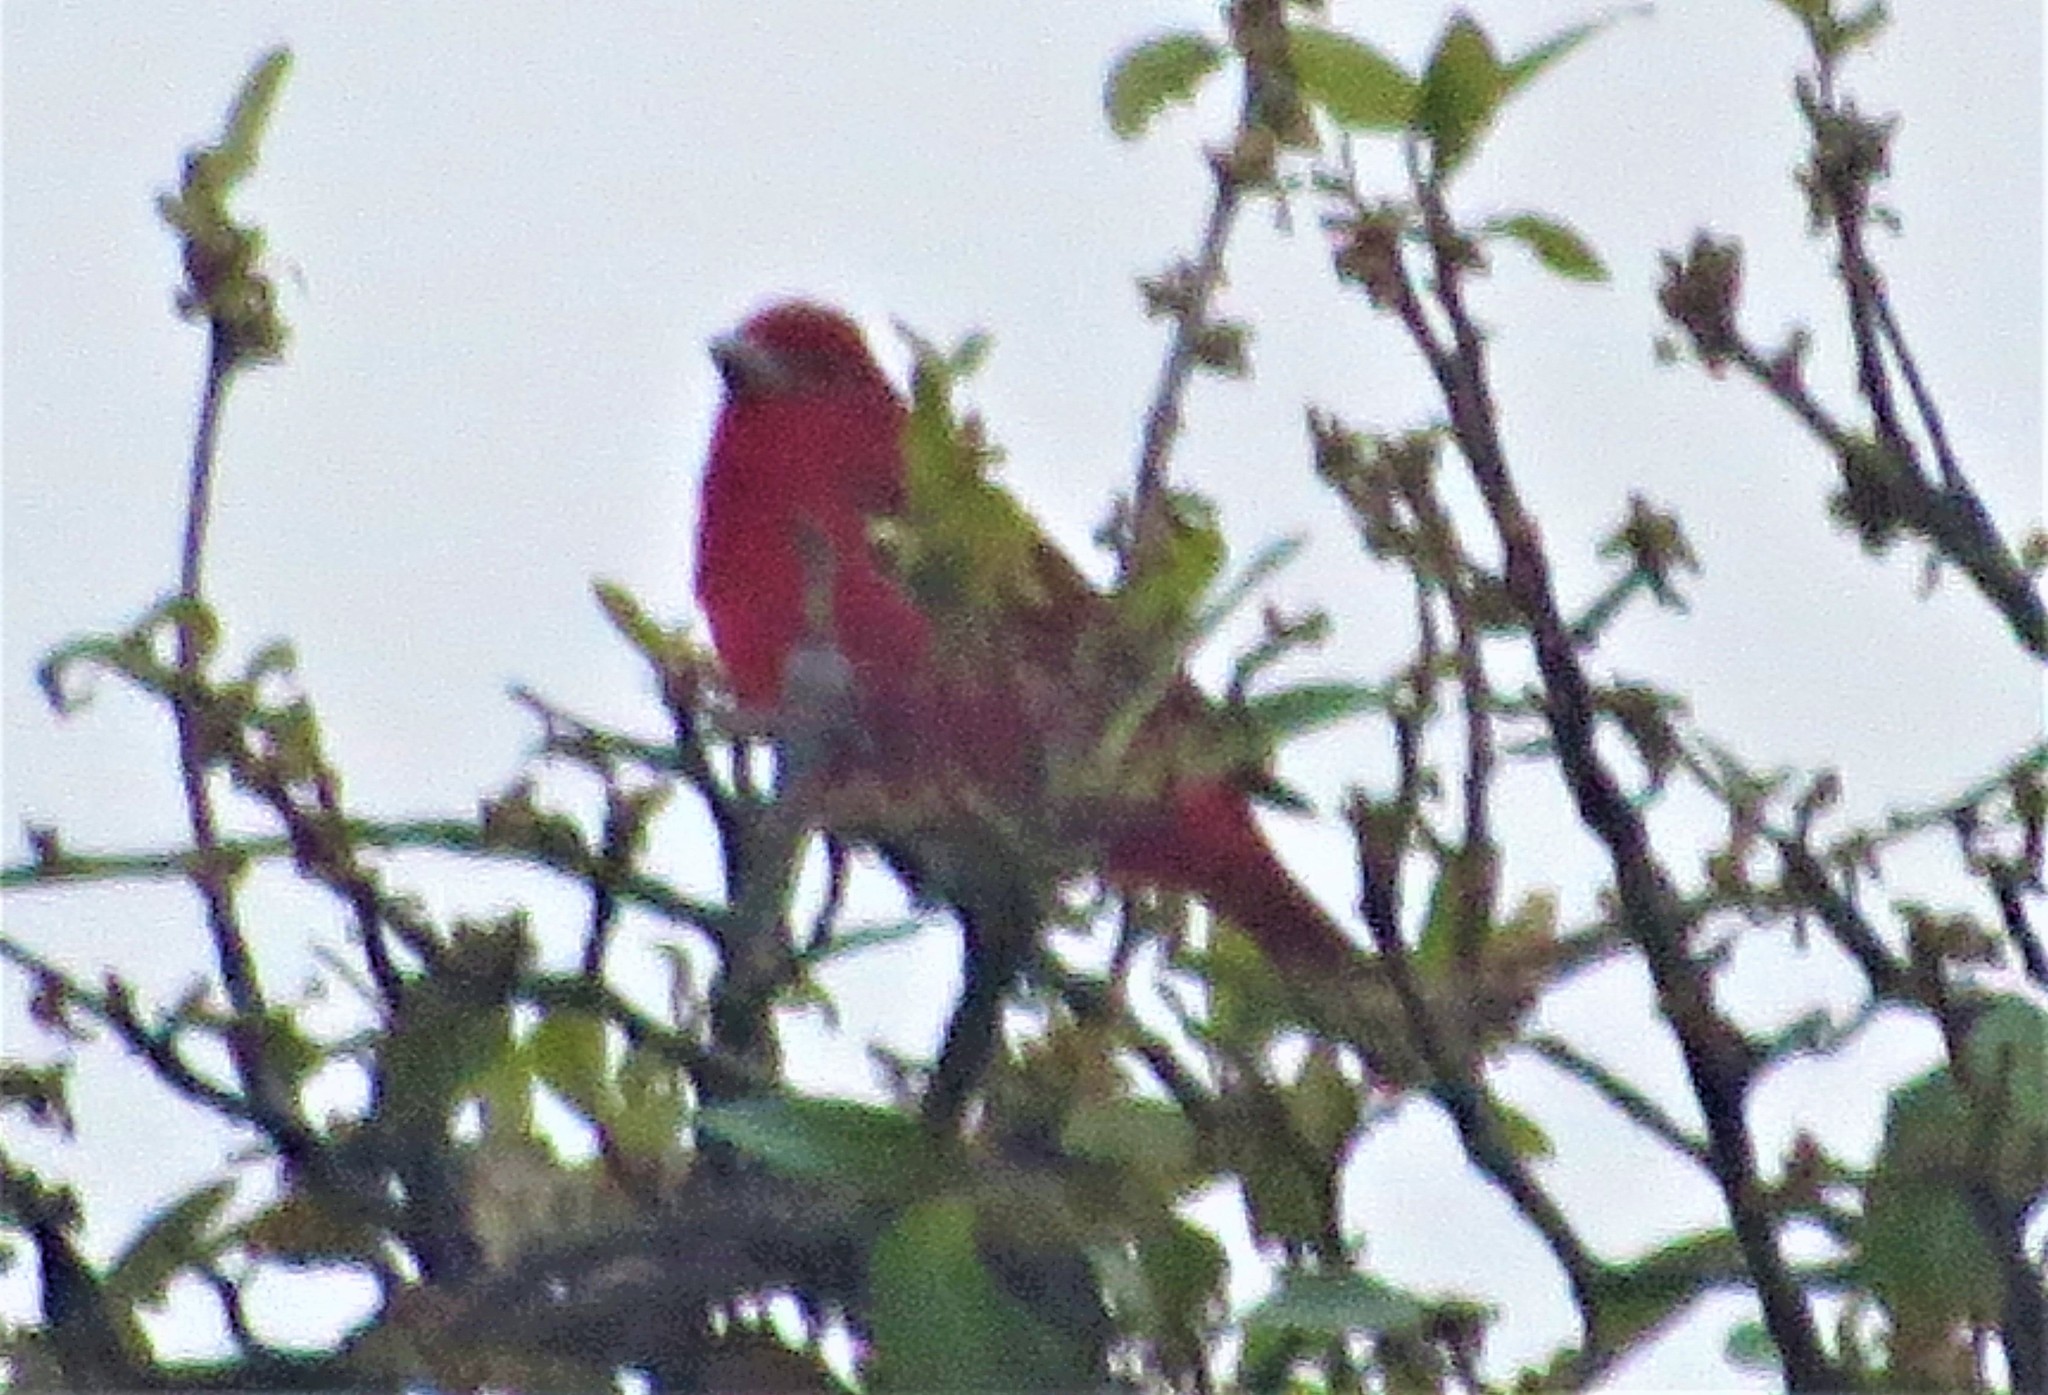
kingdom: Animalia
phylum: Chordata
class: Aves
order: Passeriformes
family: Cardinalidae
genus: Piranga
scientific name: Piranga rubra
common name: Summer tanager
